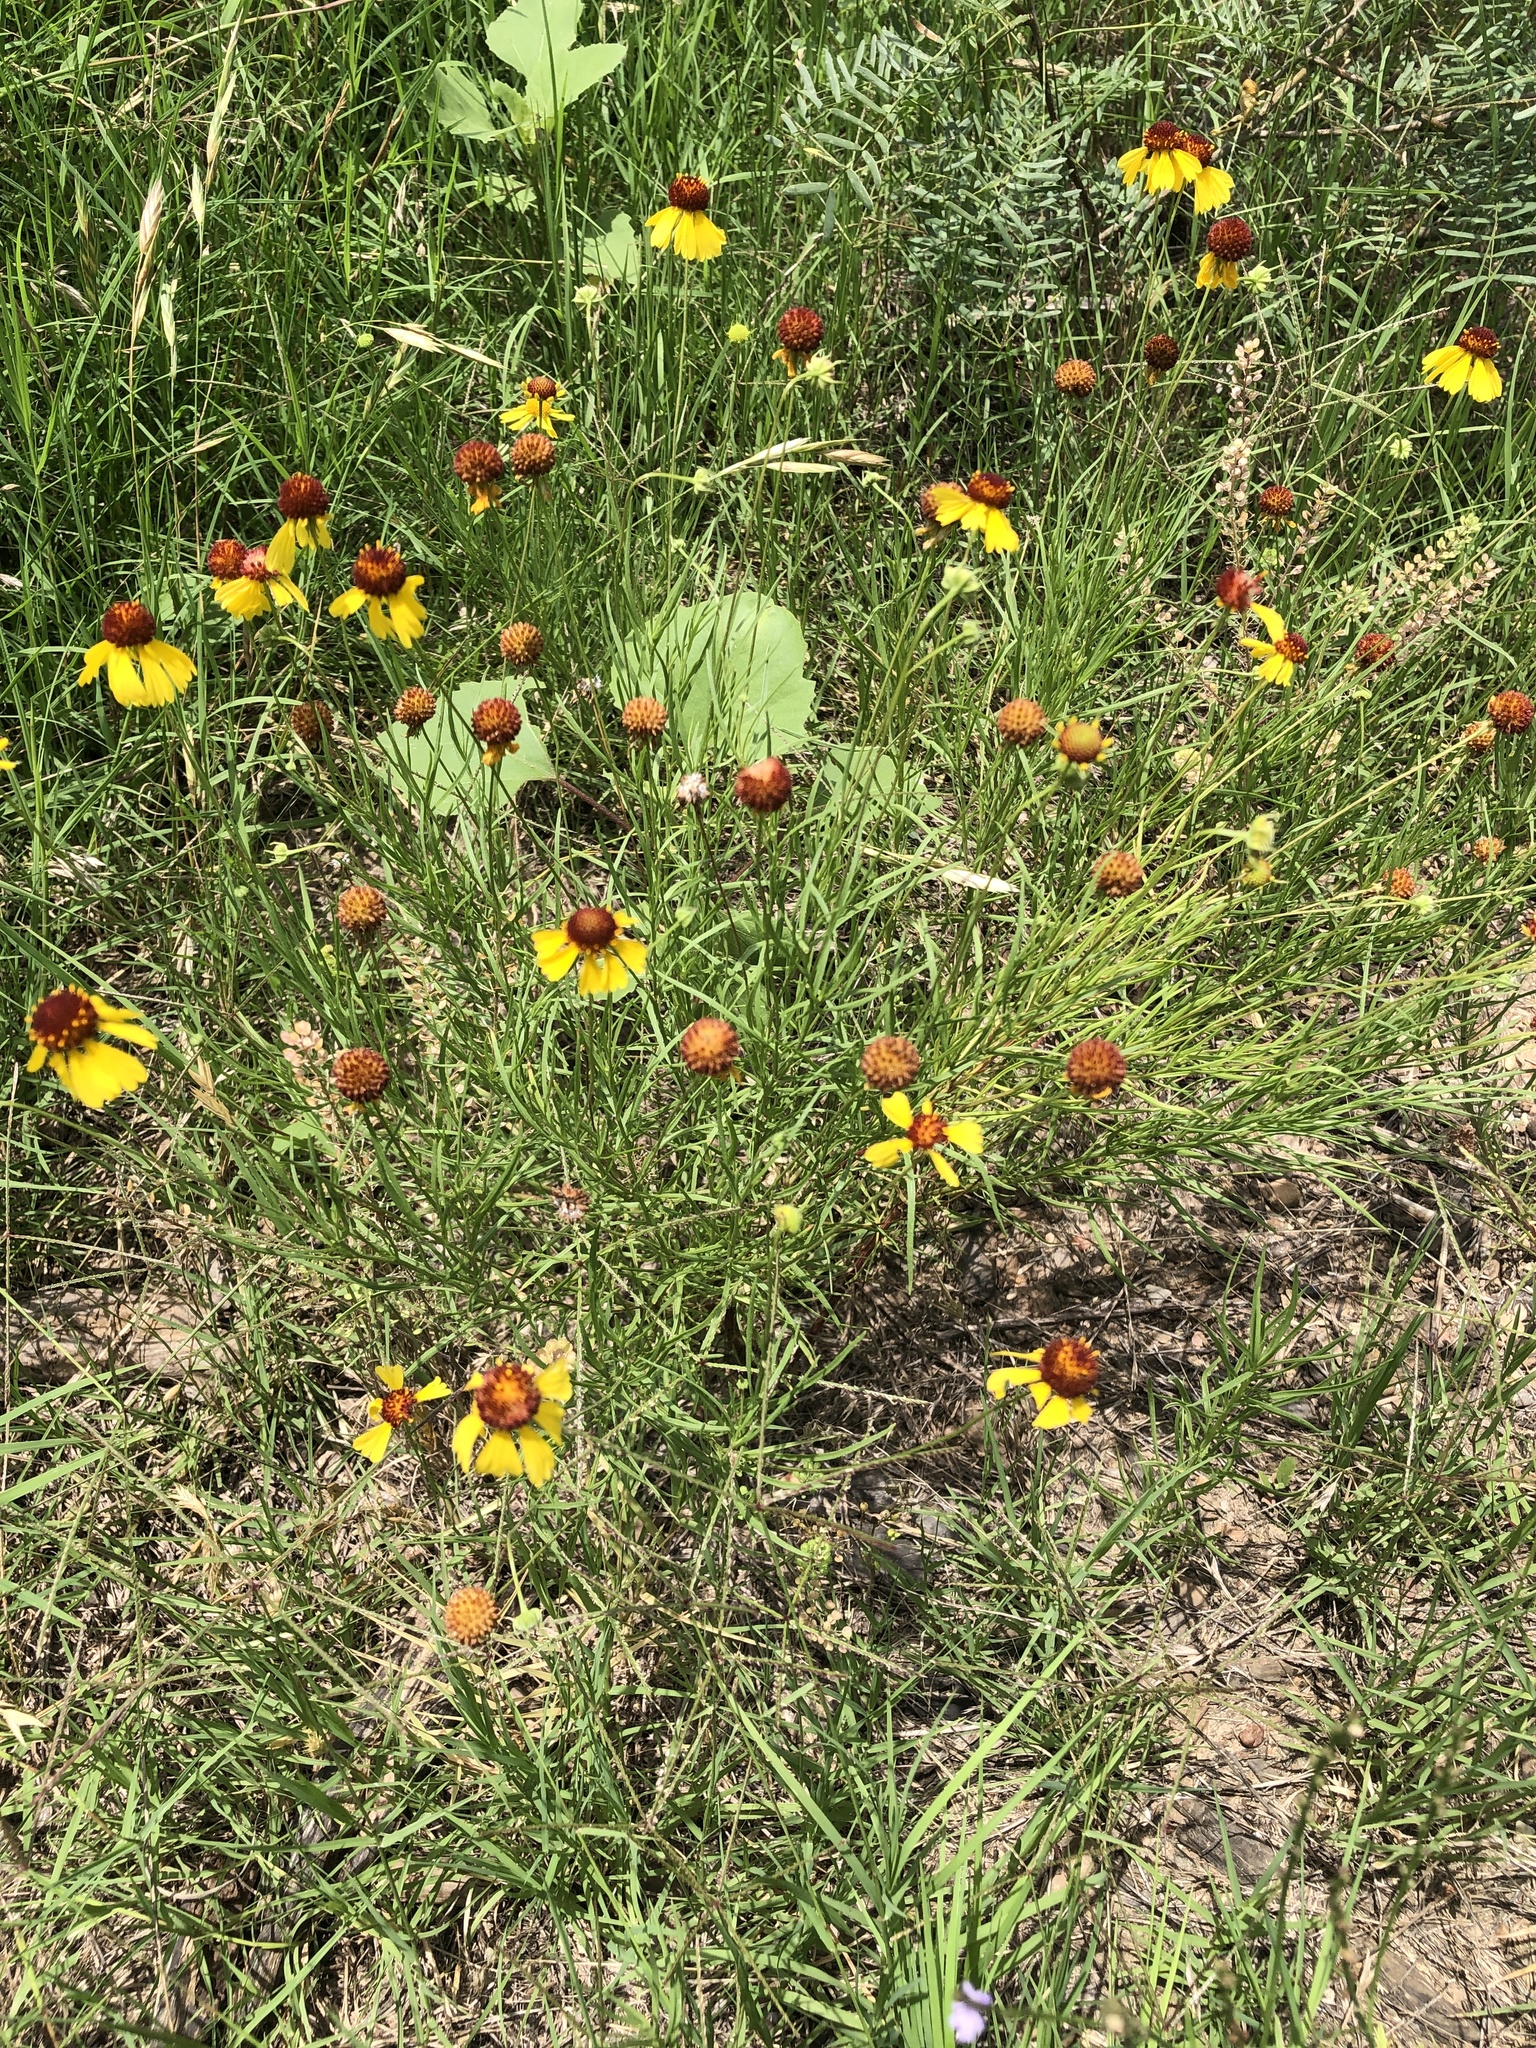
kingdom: Plantae
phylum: Tracheophyta
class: Magnoliopsida
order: Asterales
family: Asteraceae
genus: Helenium
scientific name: Helenium amarum
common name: Bitter sneezeweed
